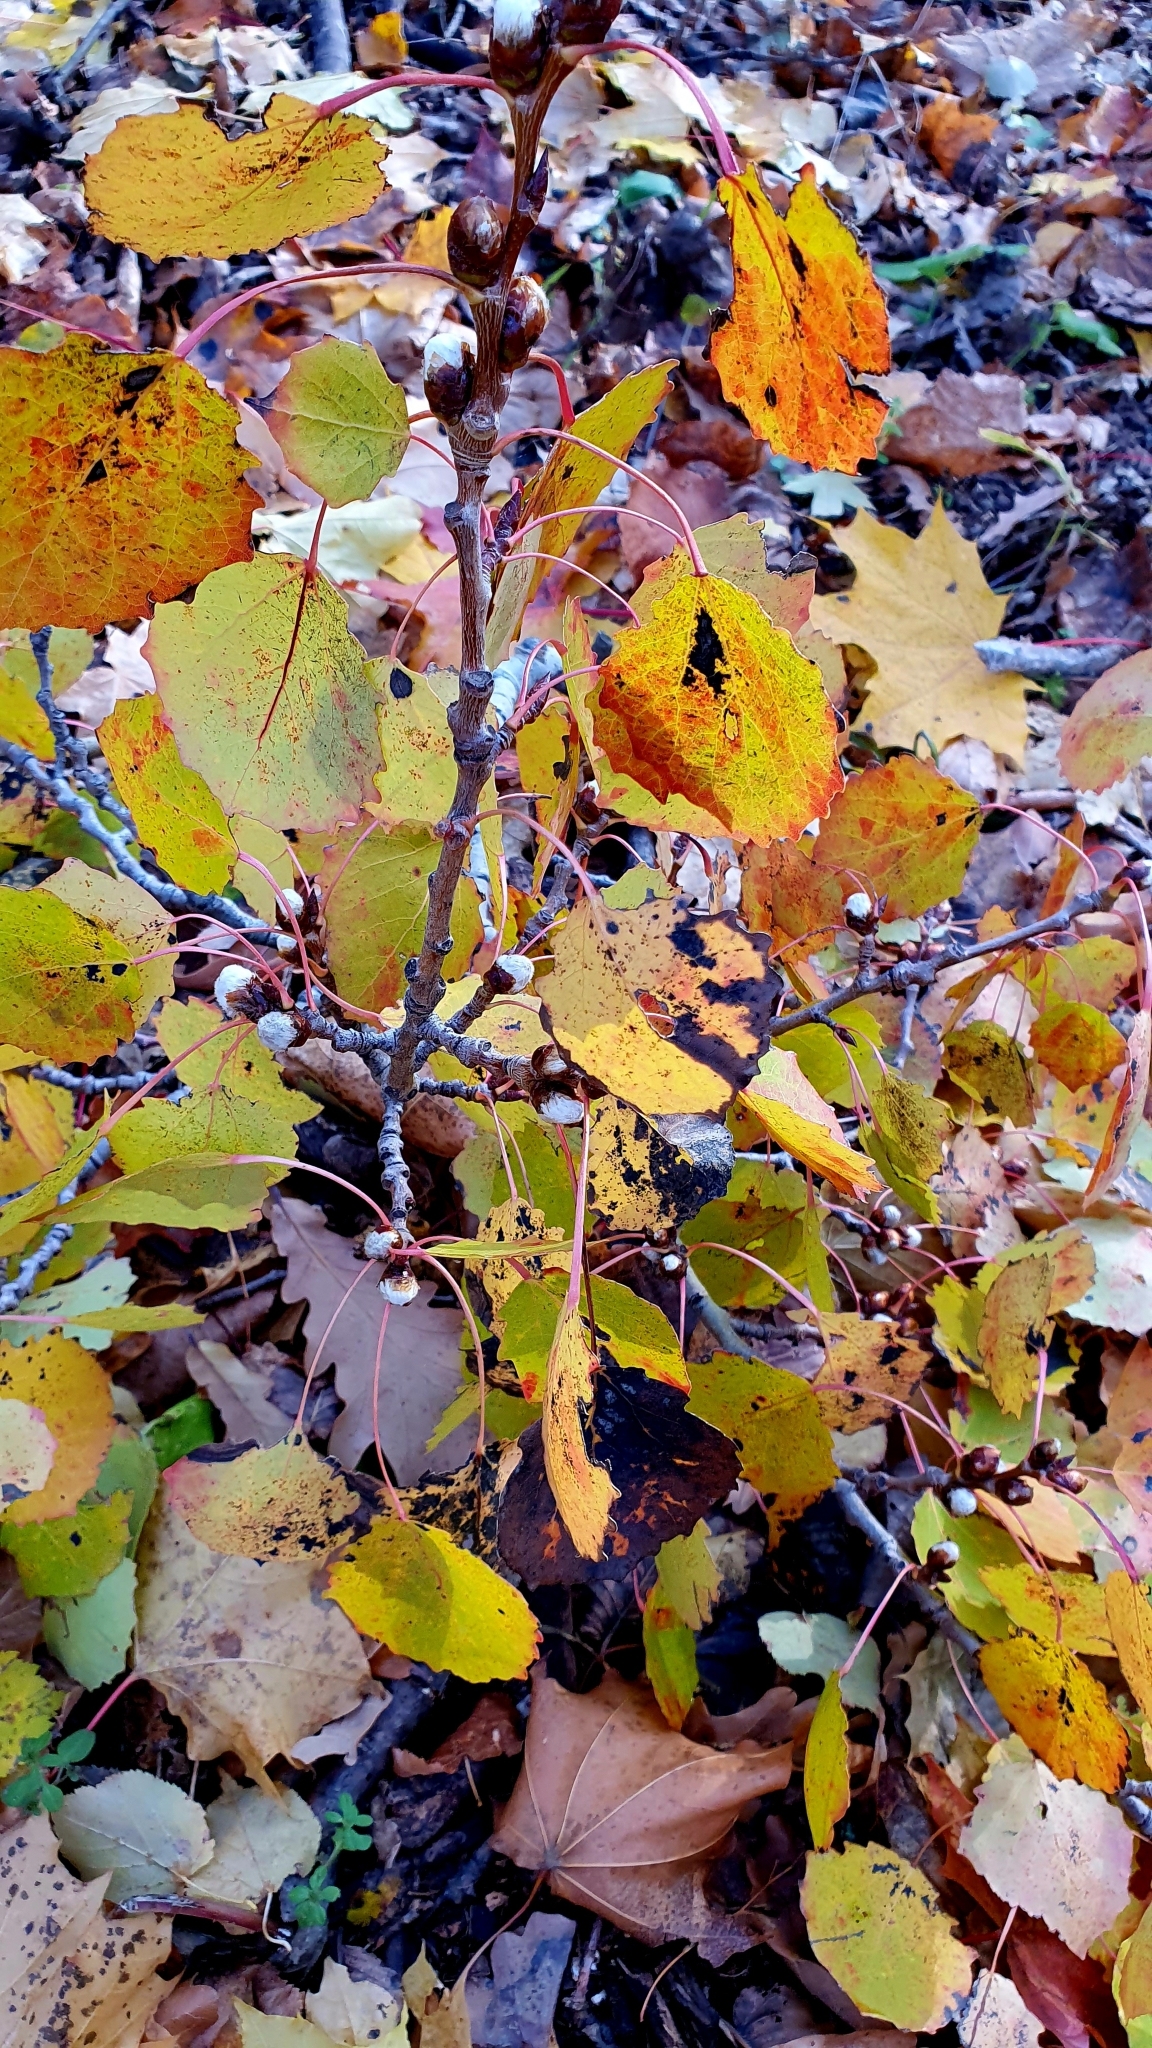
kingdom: Plantae
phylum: Tracheophyta
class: Magnoliopsida
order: Malpighiales
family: Salicaceae
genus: Populus
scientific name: Populus tremula
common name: European aspen
